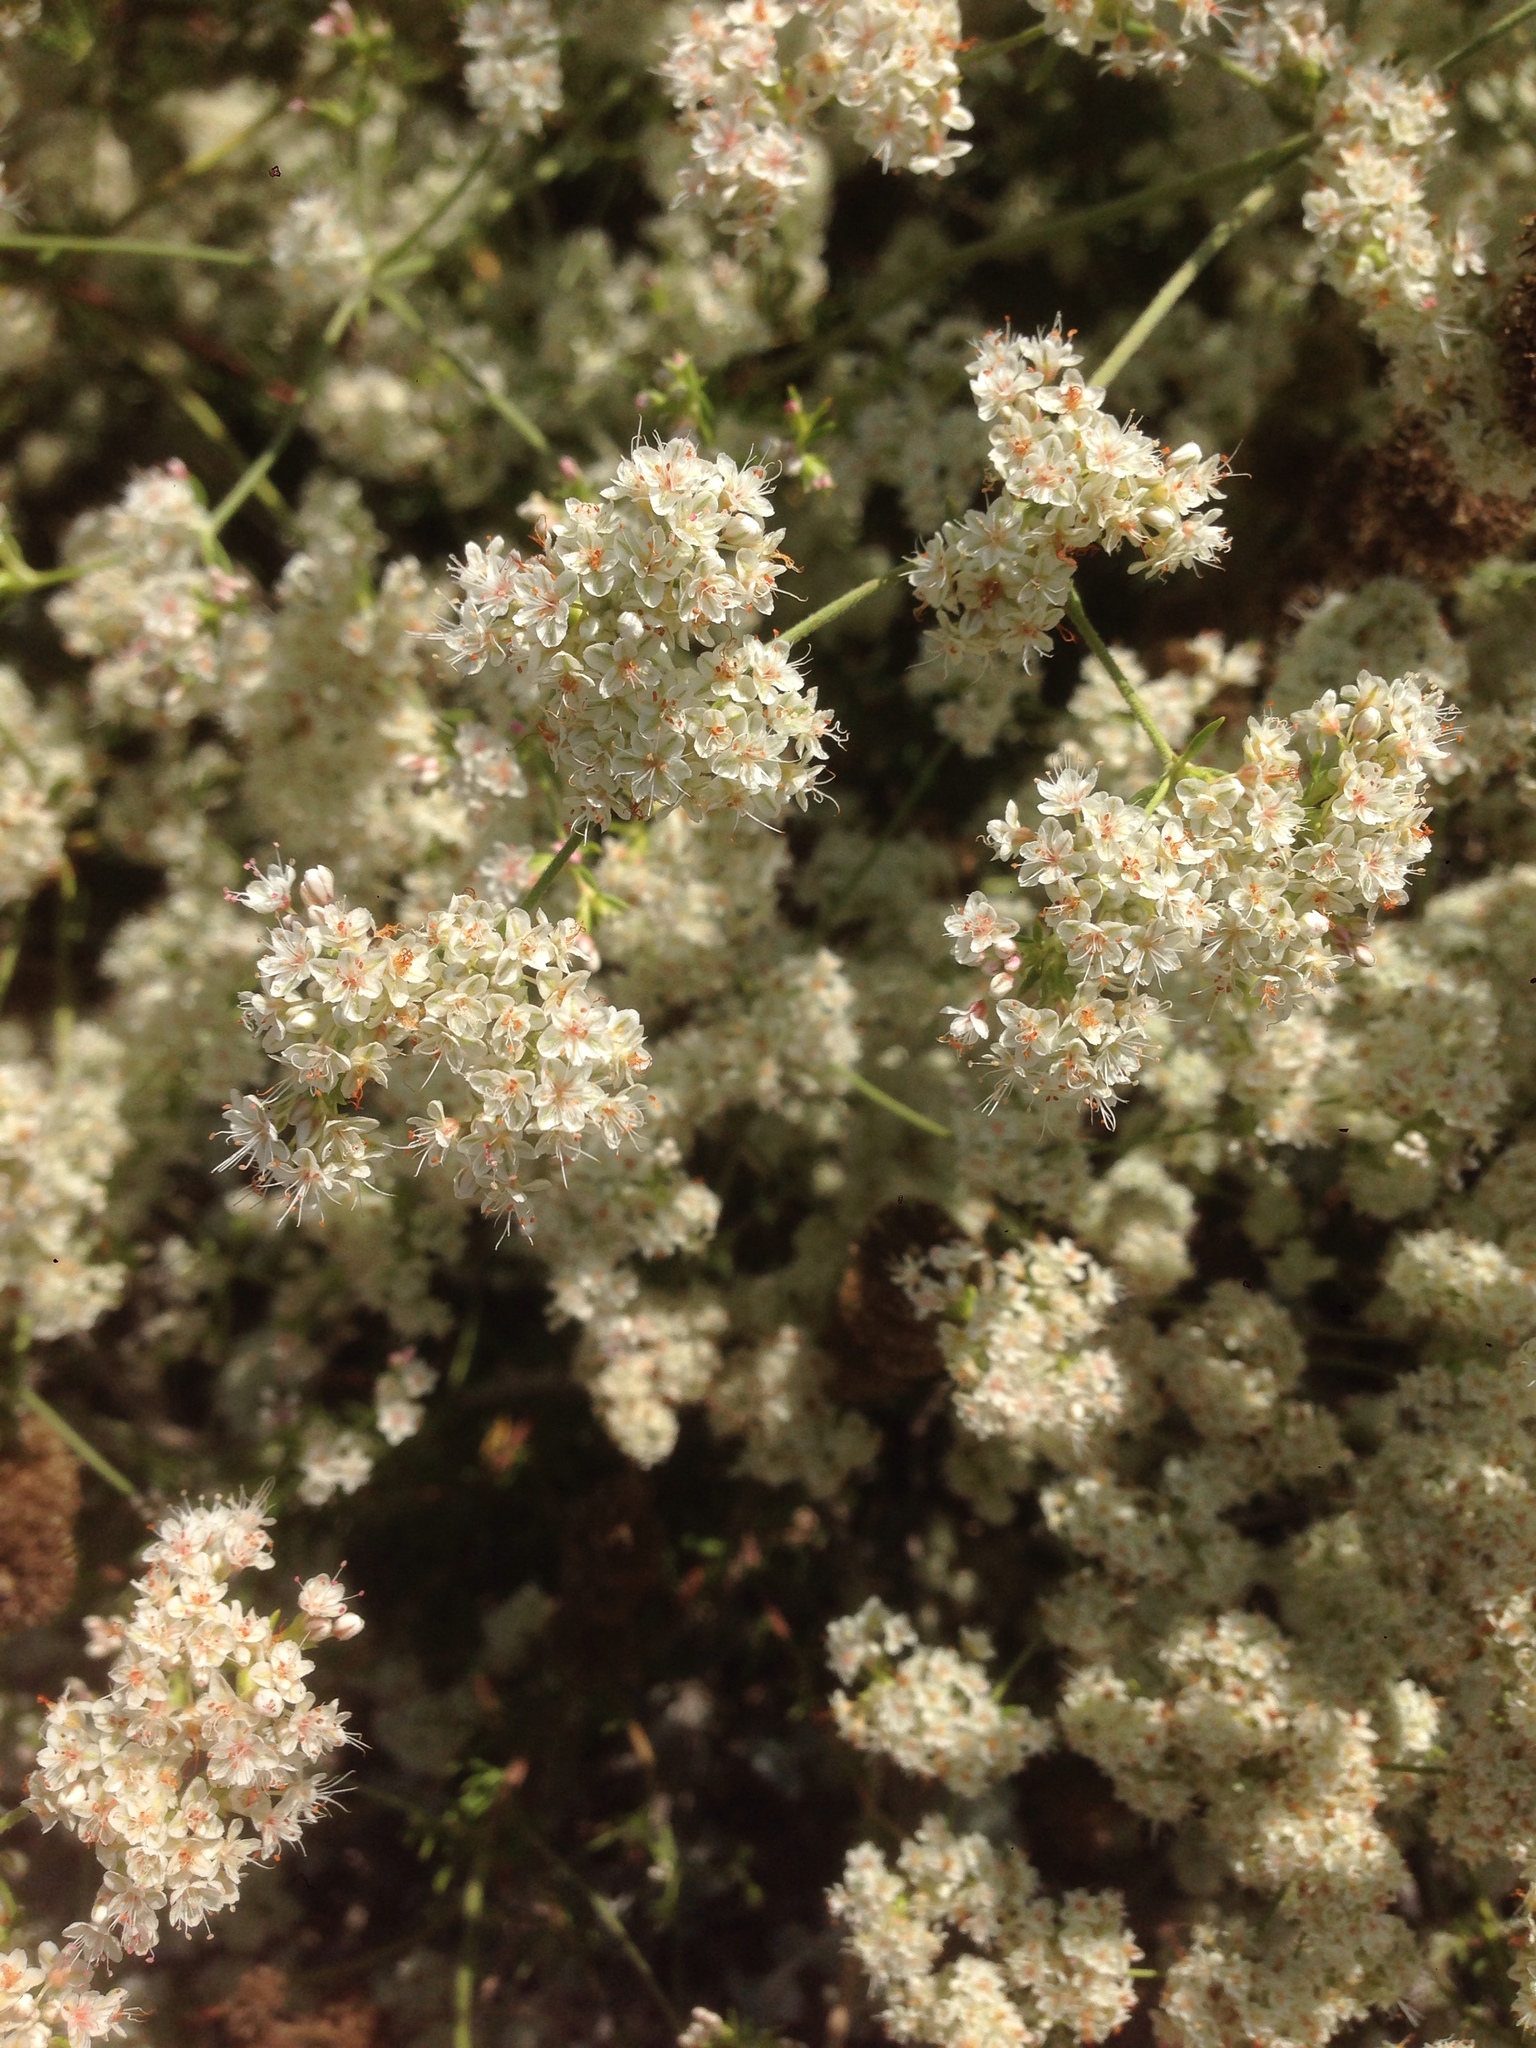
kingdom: Plantae
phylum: Tracheophyta
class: Magnoliopsida
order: Caryophyllales
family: Polygonaceae
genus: Eriogonum
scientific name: Eriogonum fasciculatum
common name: California wild buckwheat
